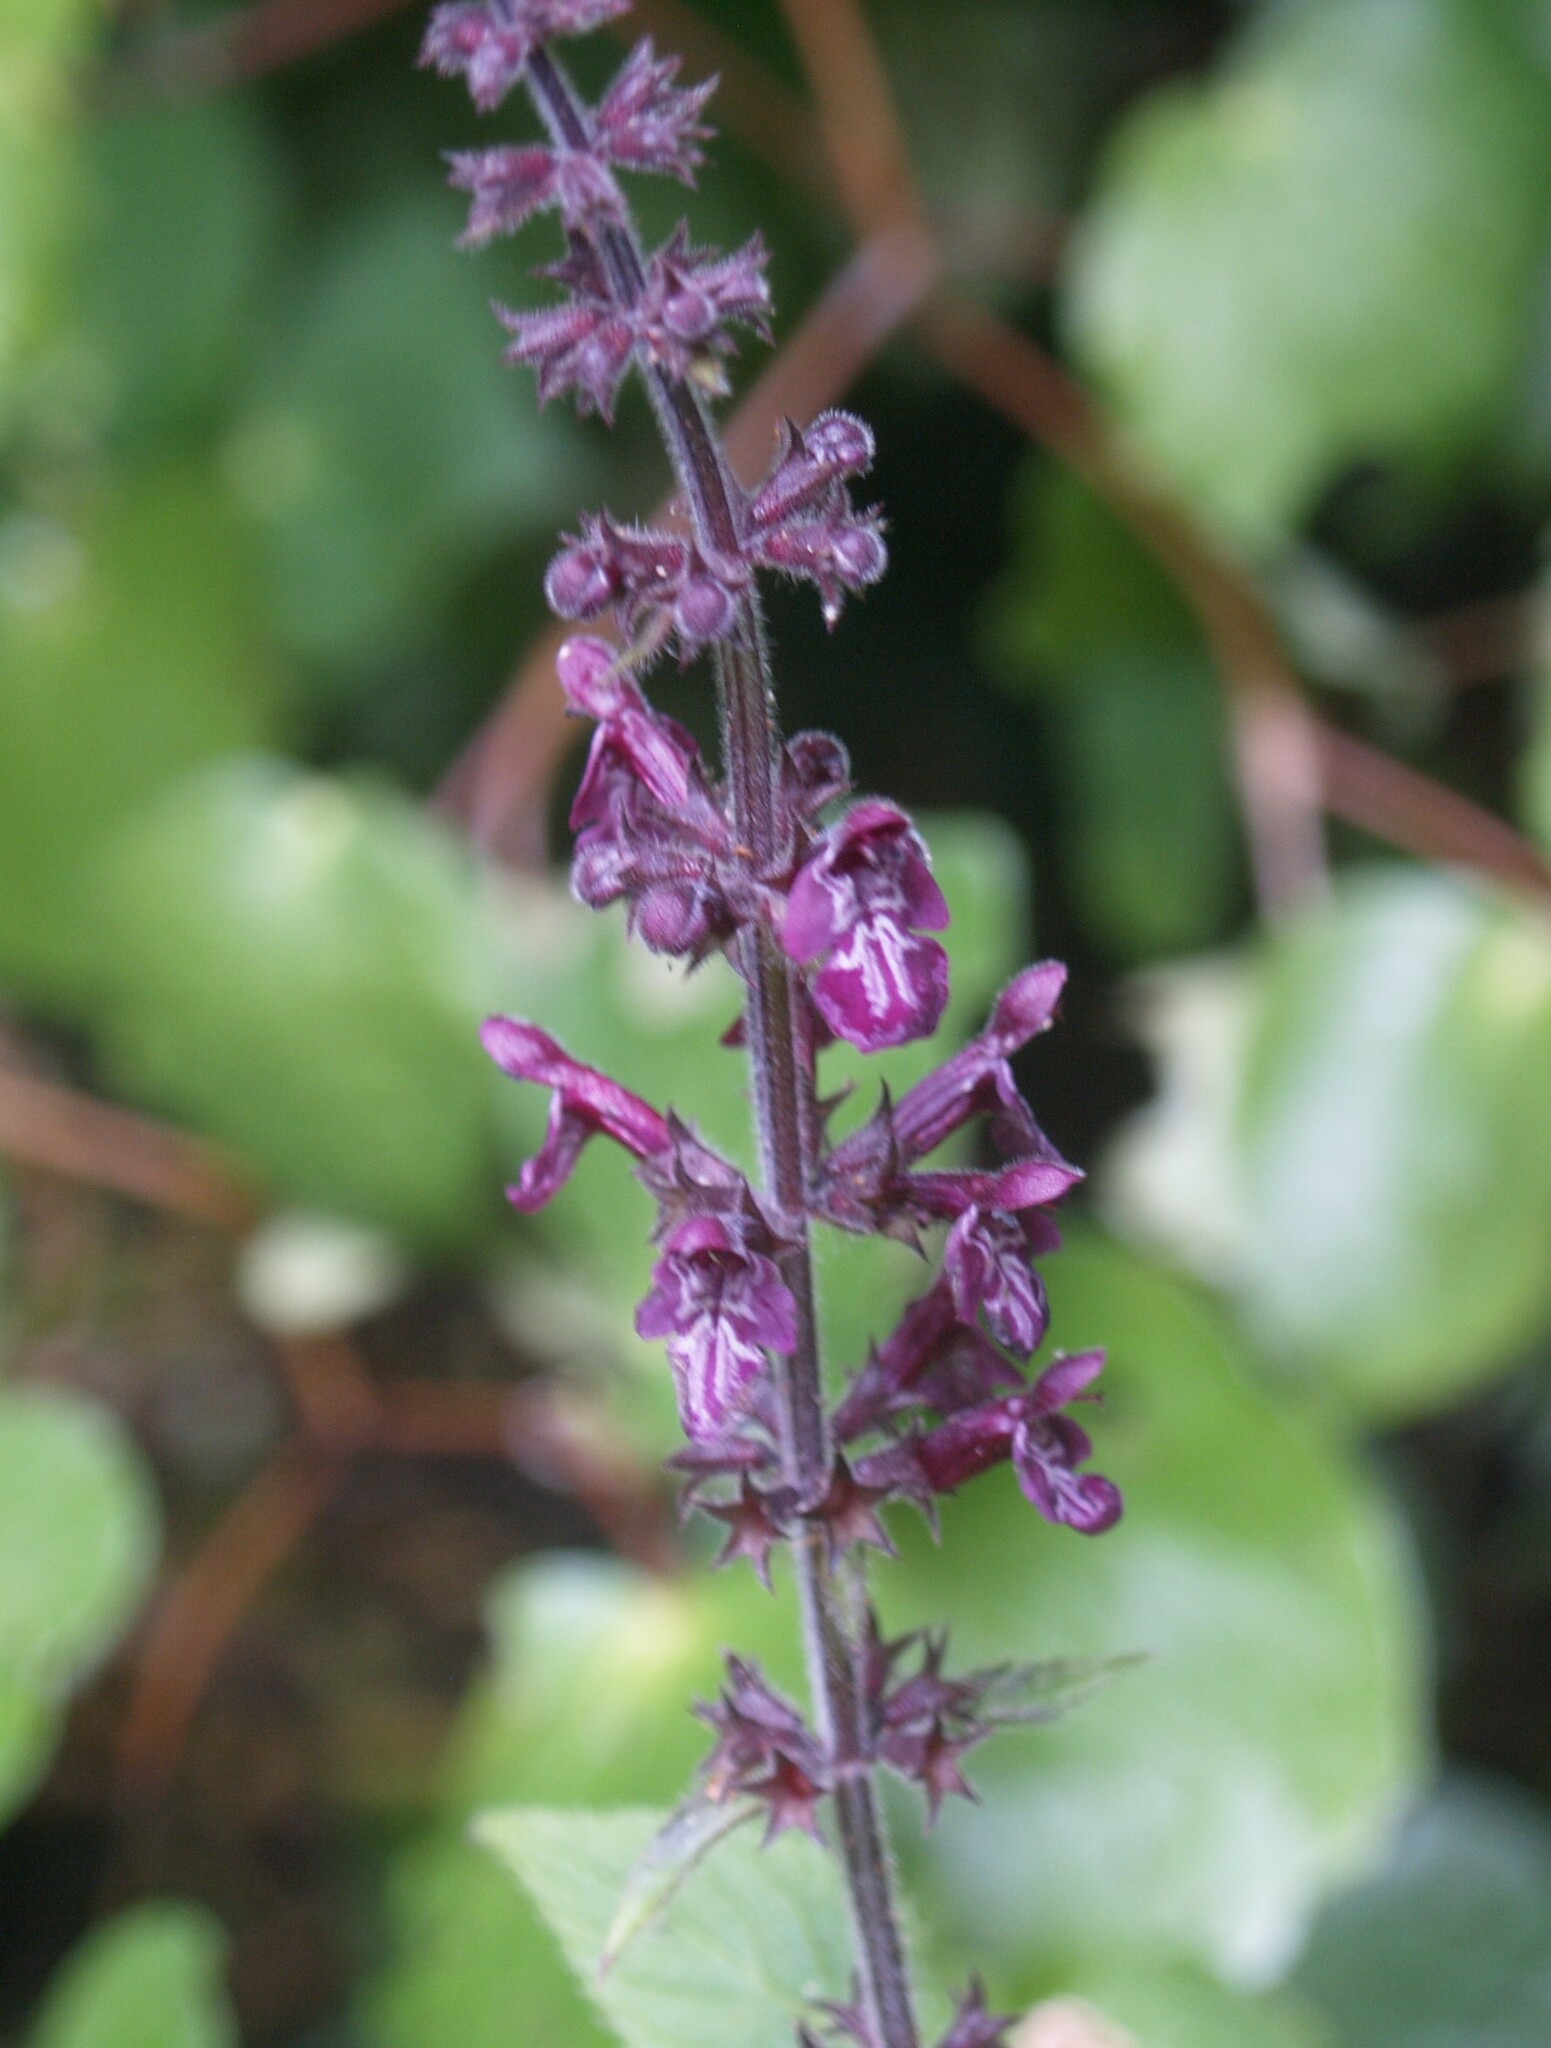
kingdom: Plantae
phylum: Tracheophyta
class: Magnoliopsida
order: Lamiales
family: Lamiaceae
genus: Stachys
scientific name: Stachys sylvatica
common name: Hedge woundwort
